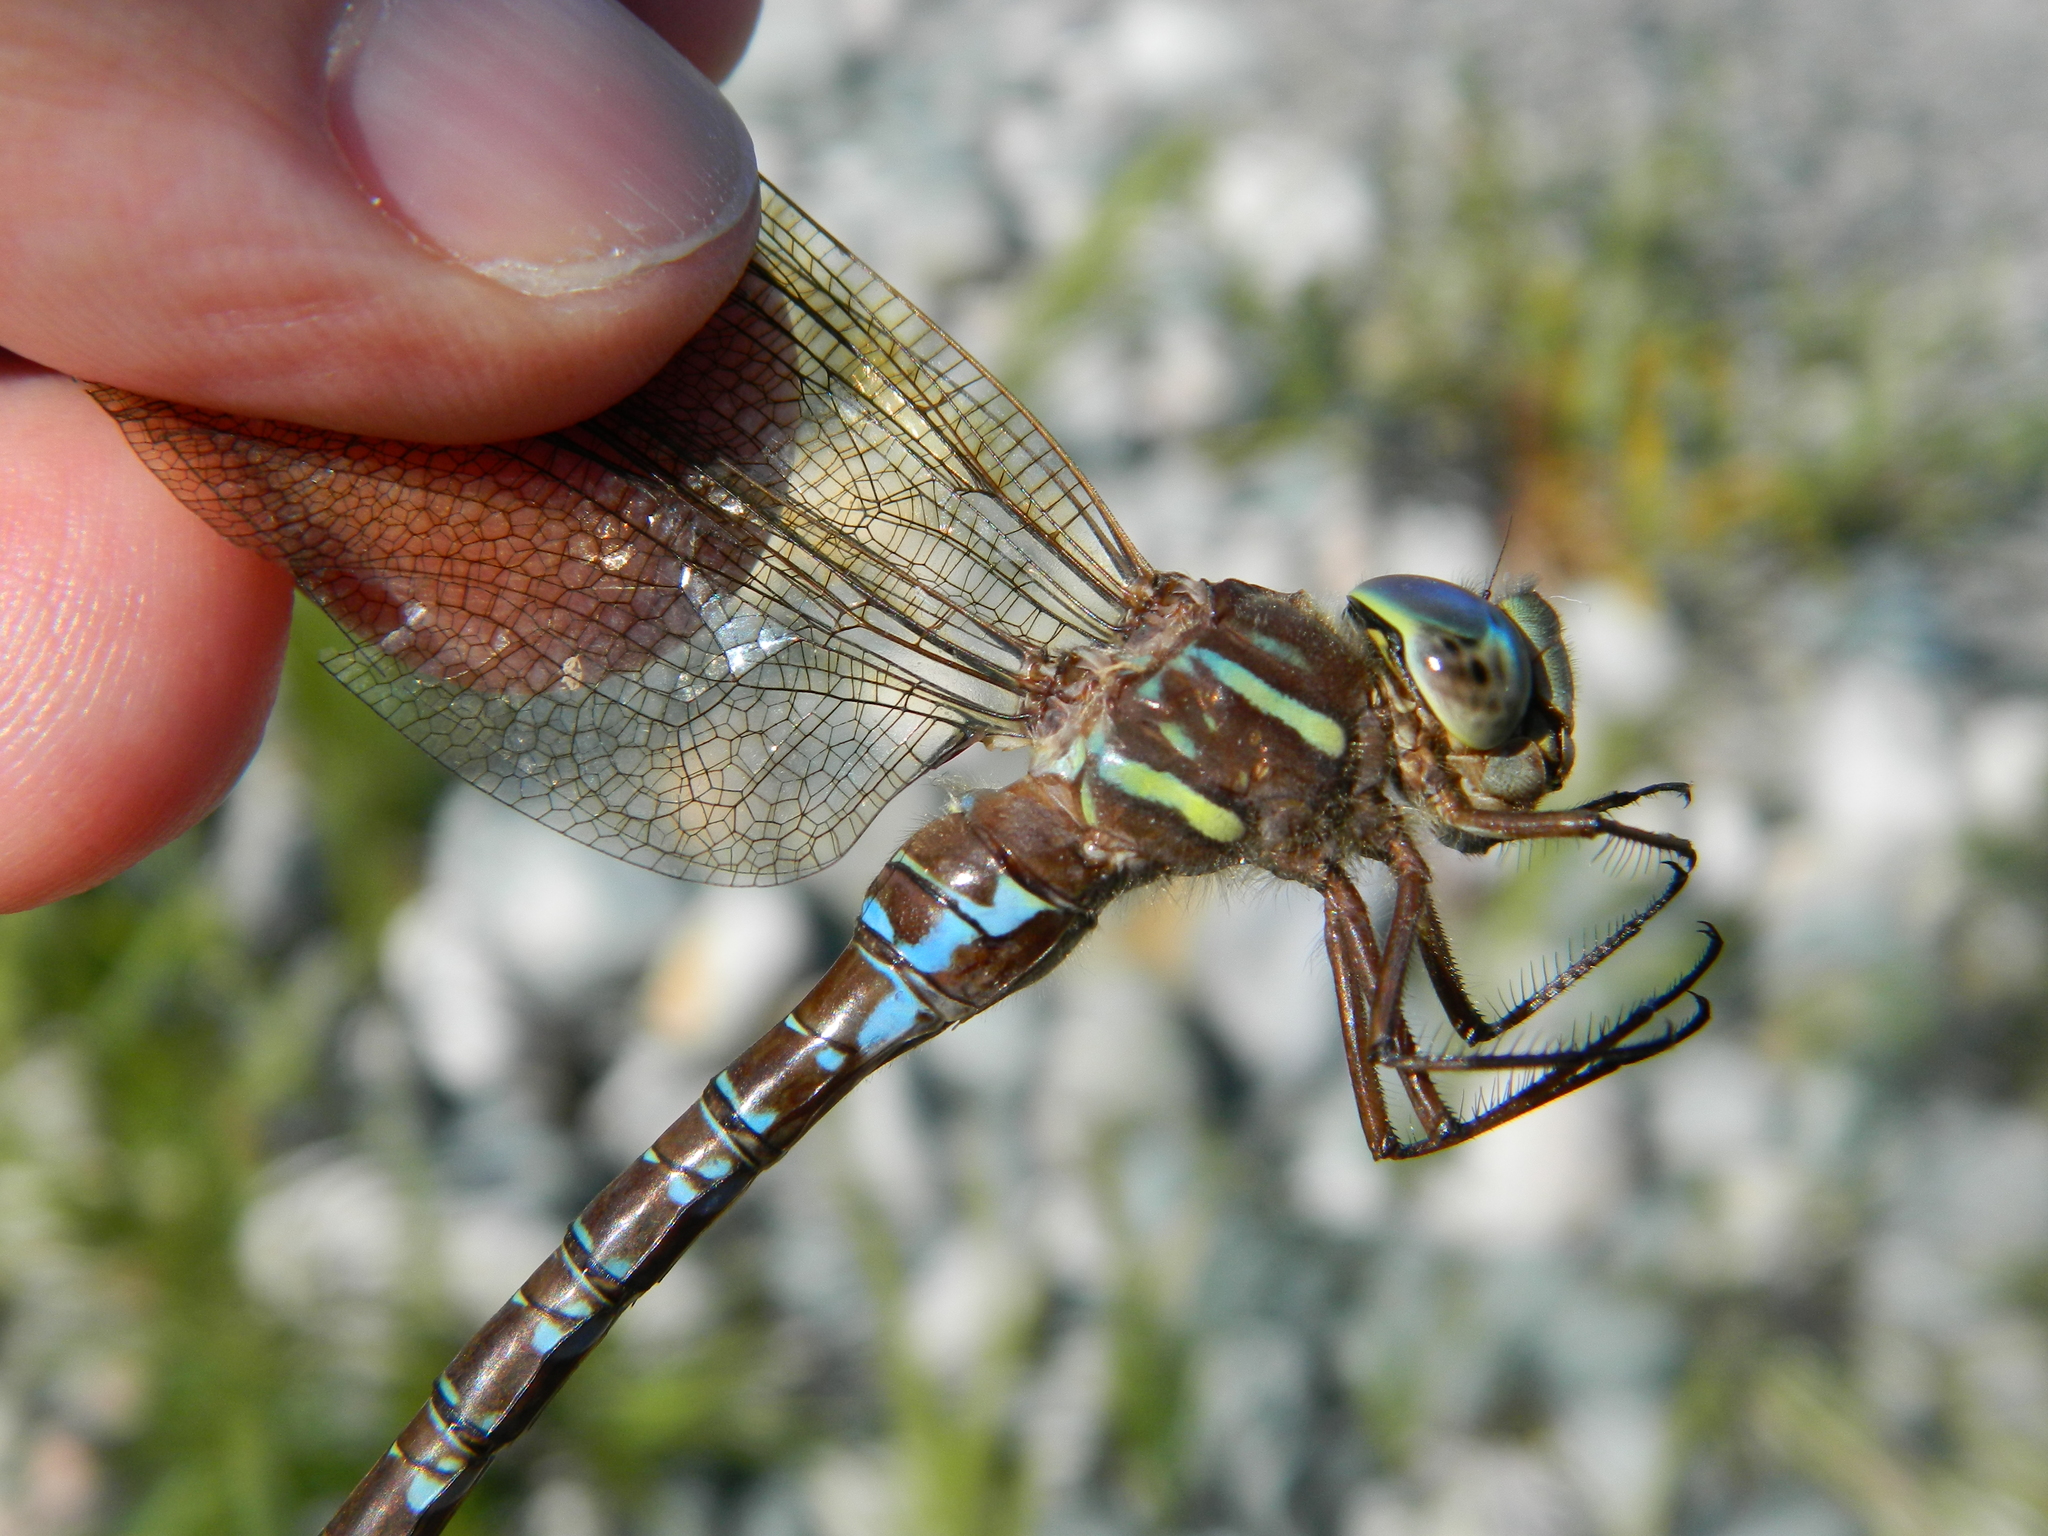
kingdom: Animalia
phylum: Arthropoda
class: Insecta
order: Odonata
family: Aeshnidae
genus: Aeshna
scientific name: Aeshna umbrosa
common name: Shadow darner
